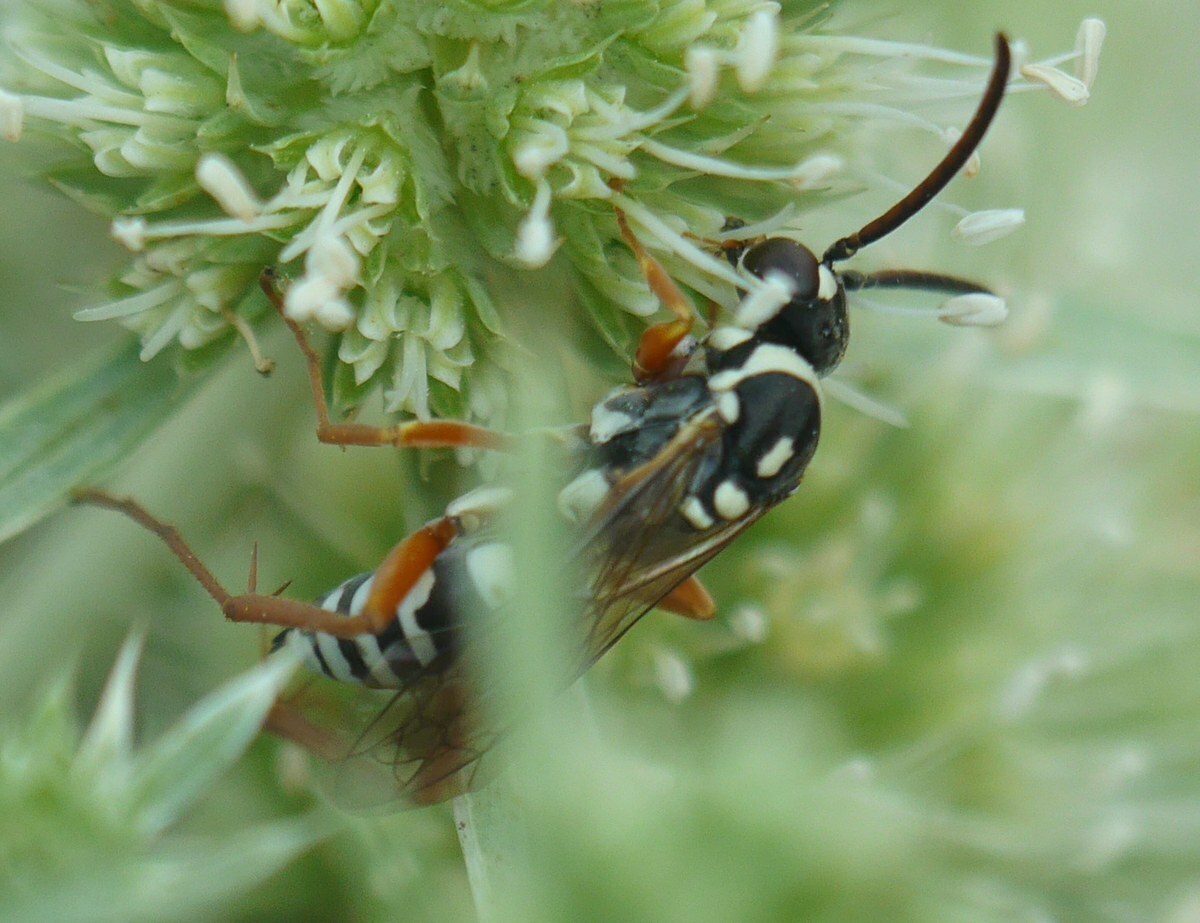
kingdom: Animalia
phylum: Arthropoda
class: Insecta
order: Hymenoptera
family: Pompilidae
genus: Ceropales
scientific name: Ceropales albicincta
